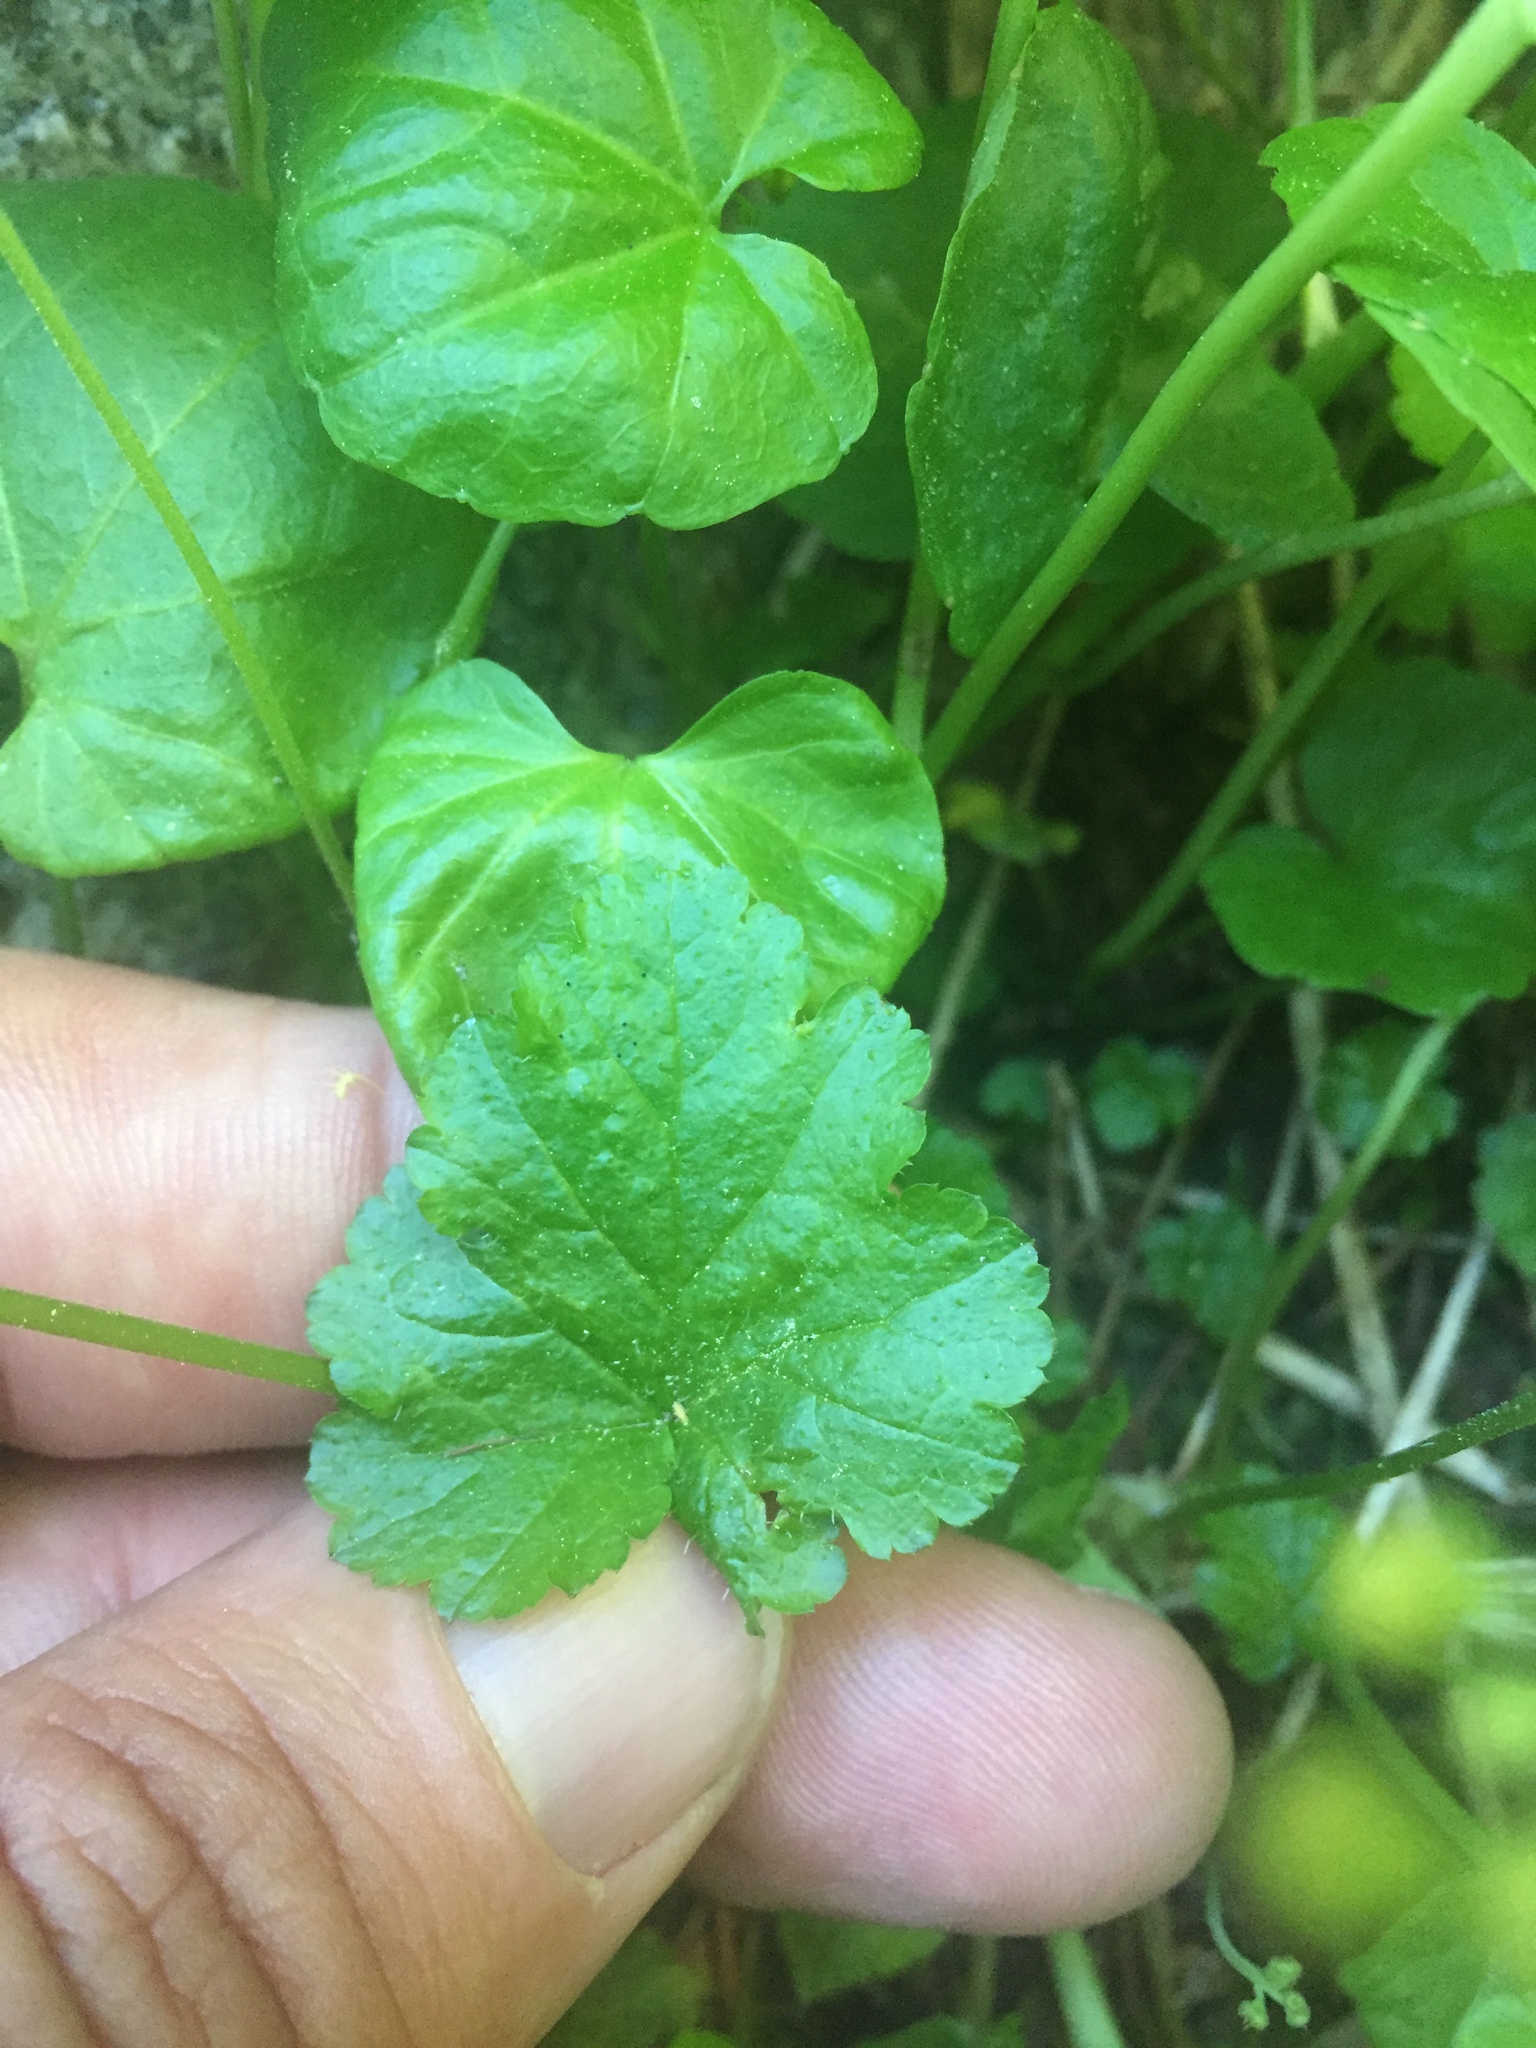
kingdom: Plantae
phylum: Tracheophyta
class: Magnoliopsida
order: Saxifragales
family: Saxifragaceae
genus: Pectiantia
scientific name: Pectiantia pentandra
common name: Alpine bishop's-cap
